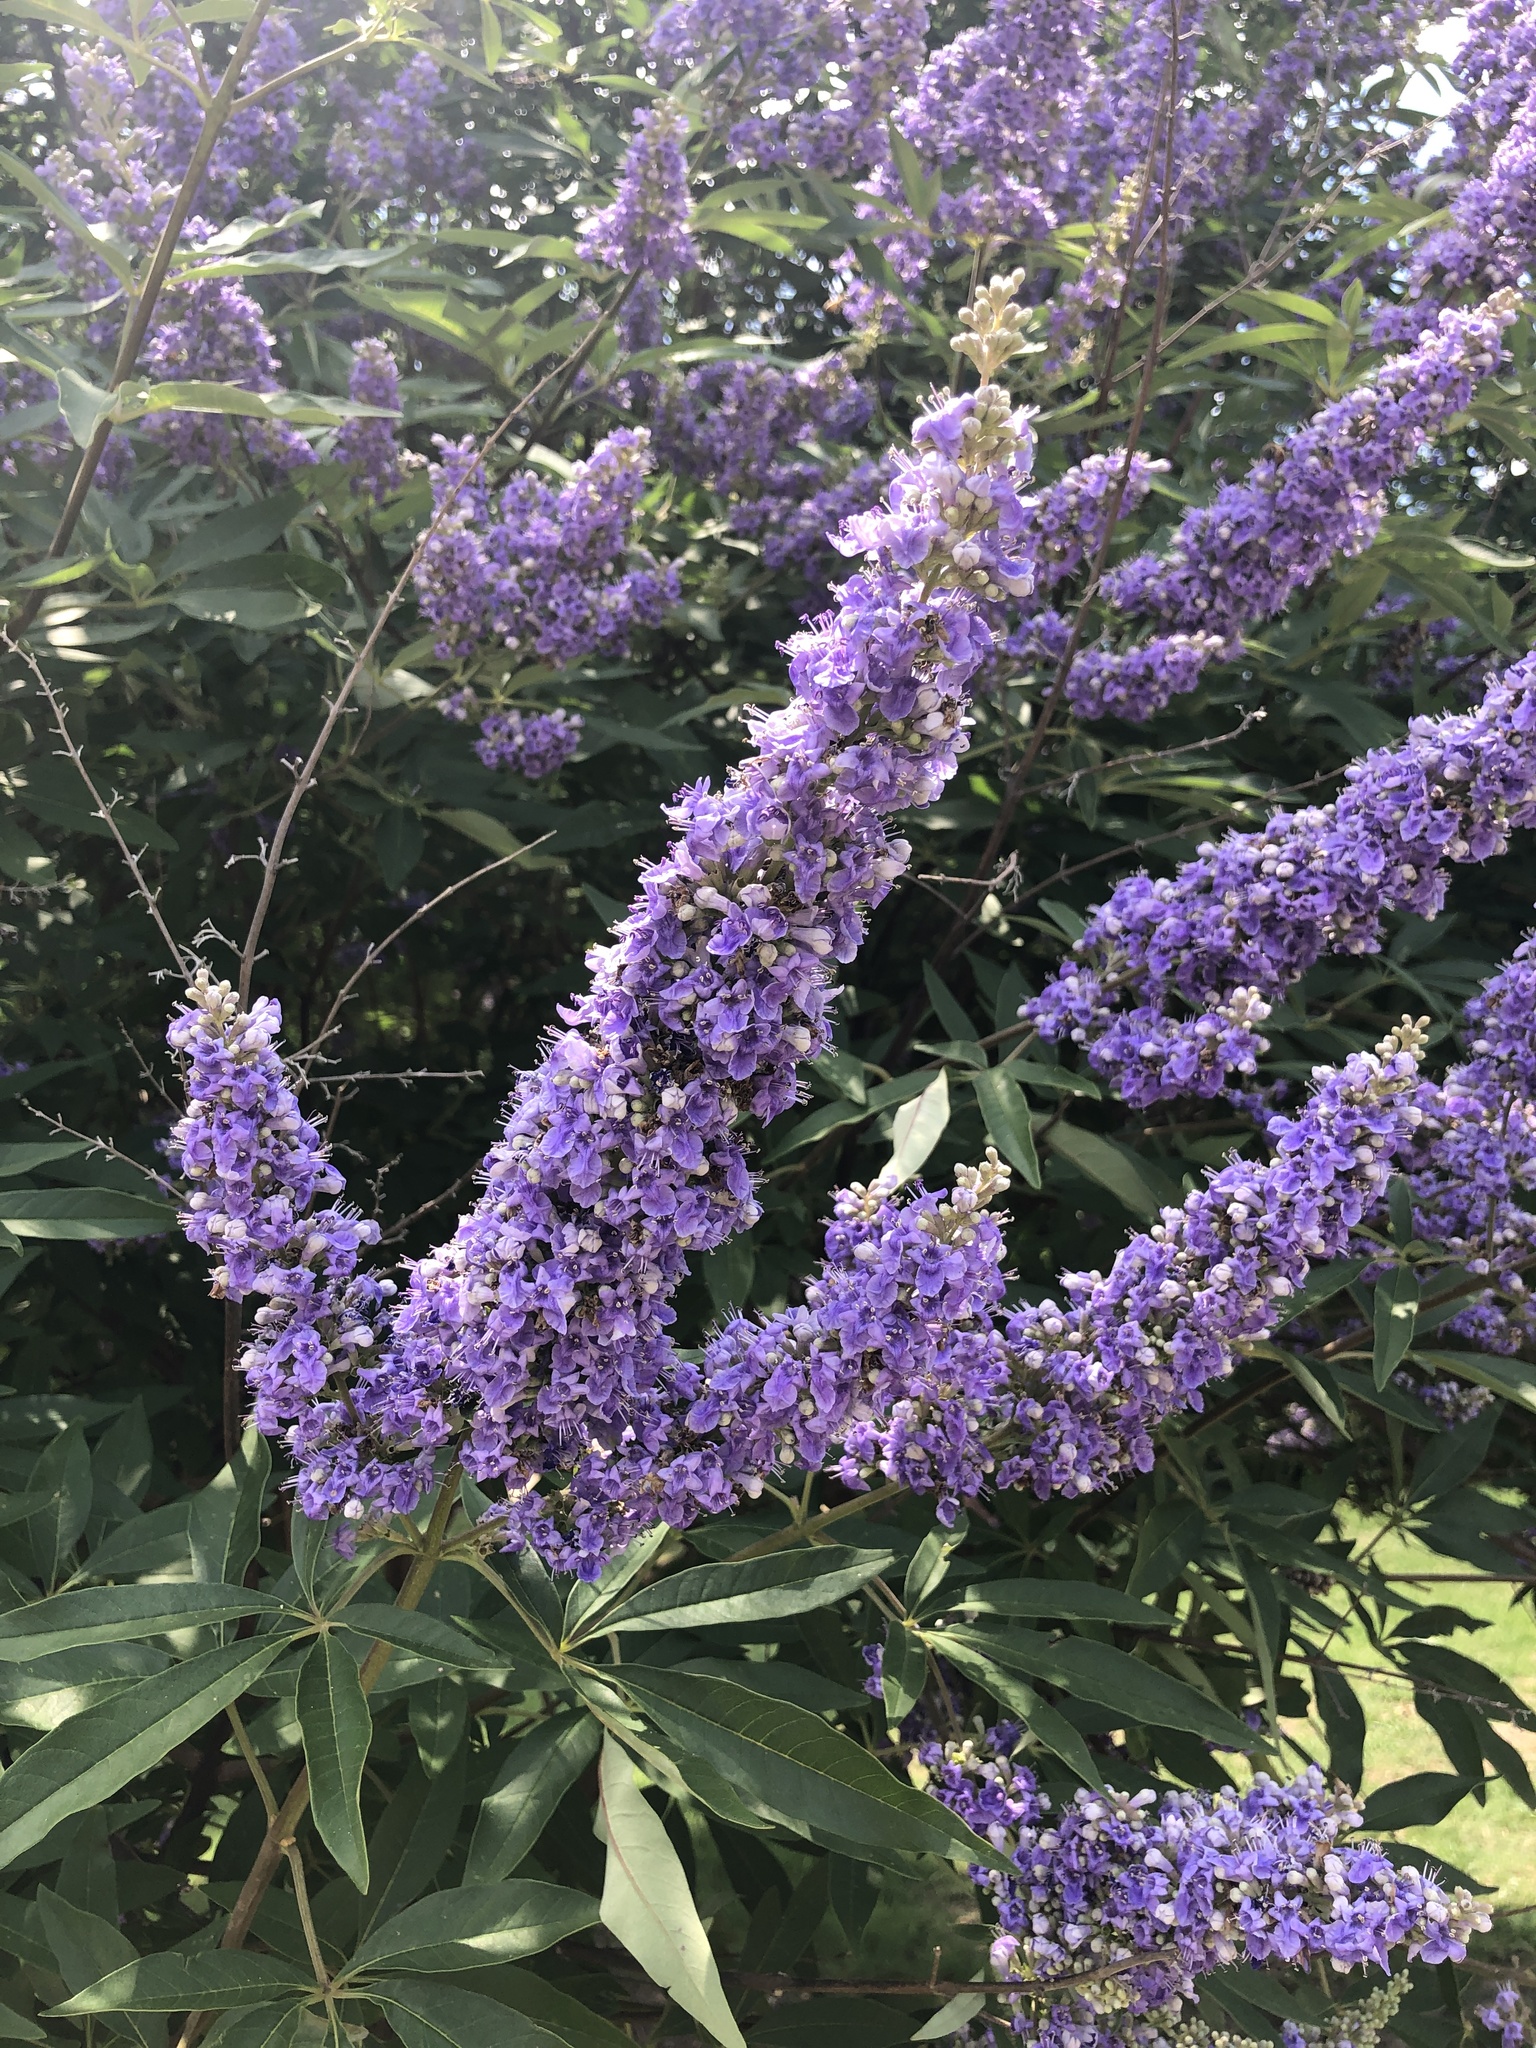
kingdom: Plantae
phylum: Tracheophyta
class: Magnoliopsida
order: Lamiales
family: Lamiaceae
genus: Vitex
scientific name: Vitex agnus-castus
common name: Chasteberry
